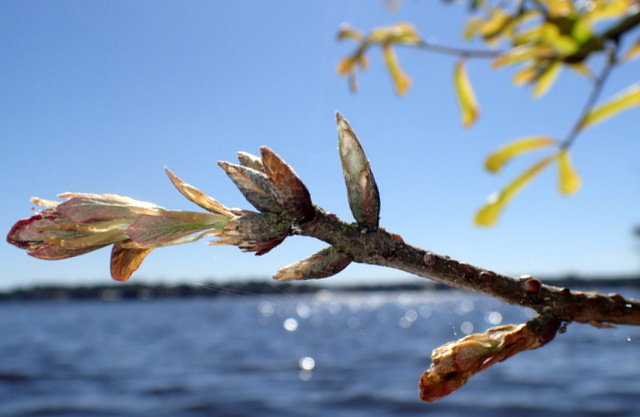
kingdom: Plantae
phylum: Tracheophyta
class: Magnoliopsida
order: Fagales
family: Fagaceae
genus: Quercus
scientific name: Quercus nigra
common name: Water oak
